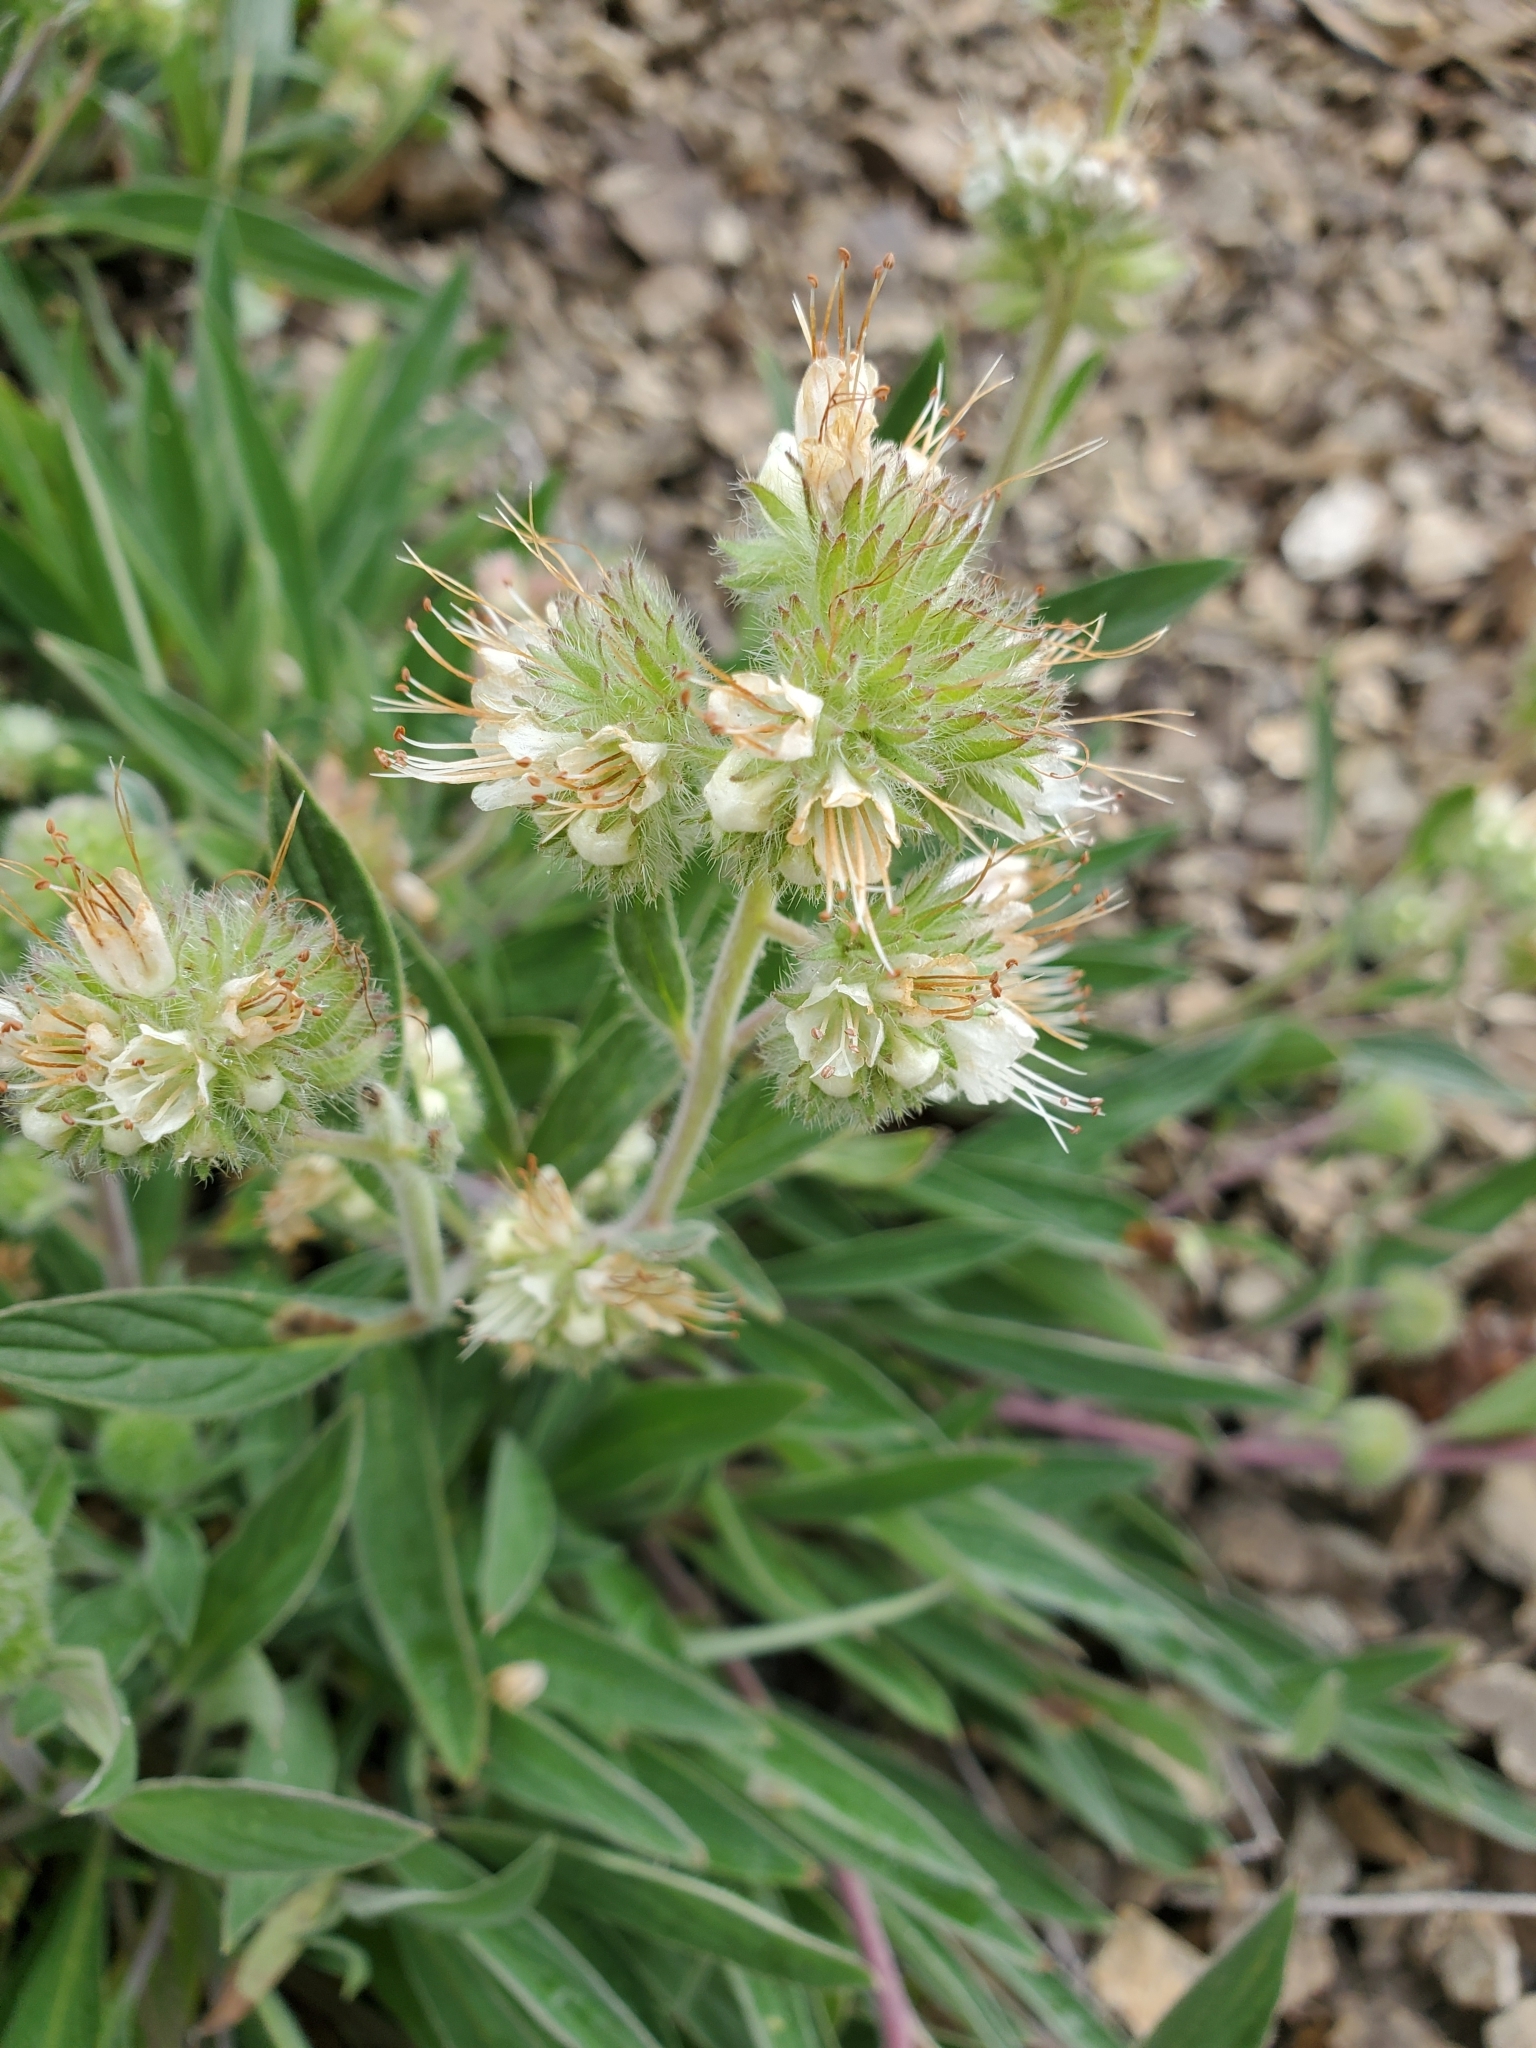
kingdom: Plantae
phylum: Tracheophyta
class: Magnoliopsida
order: Boraginales
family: Hydrophyllaceae
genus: Phacelia
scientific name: Phacelia hastata
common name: Silver-leaved phacelia
